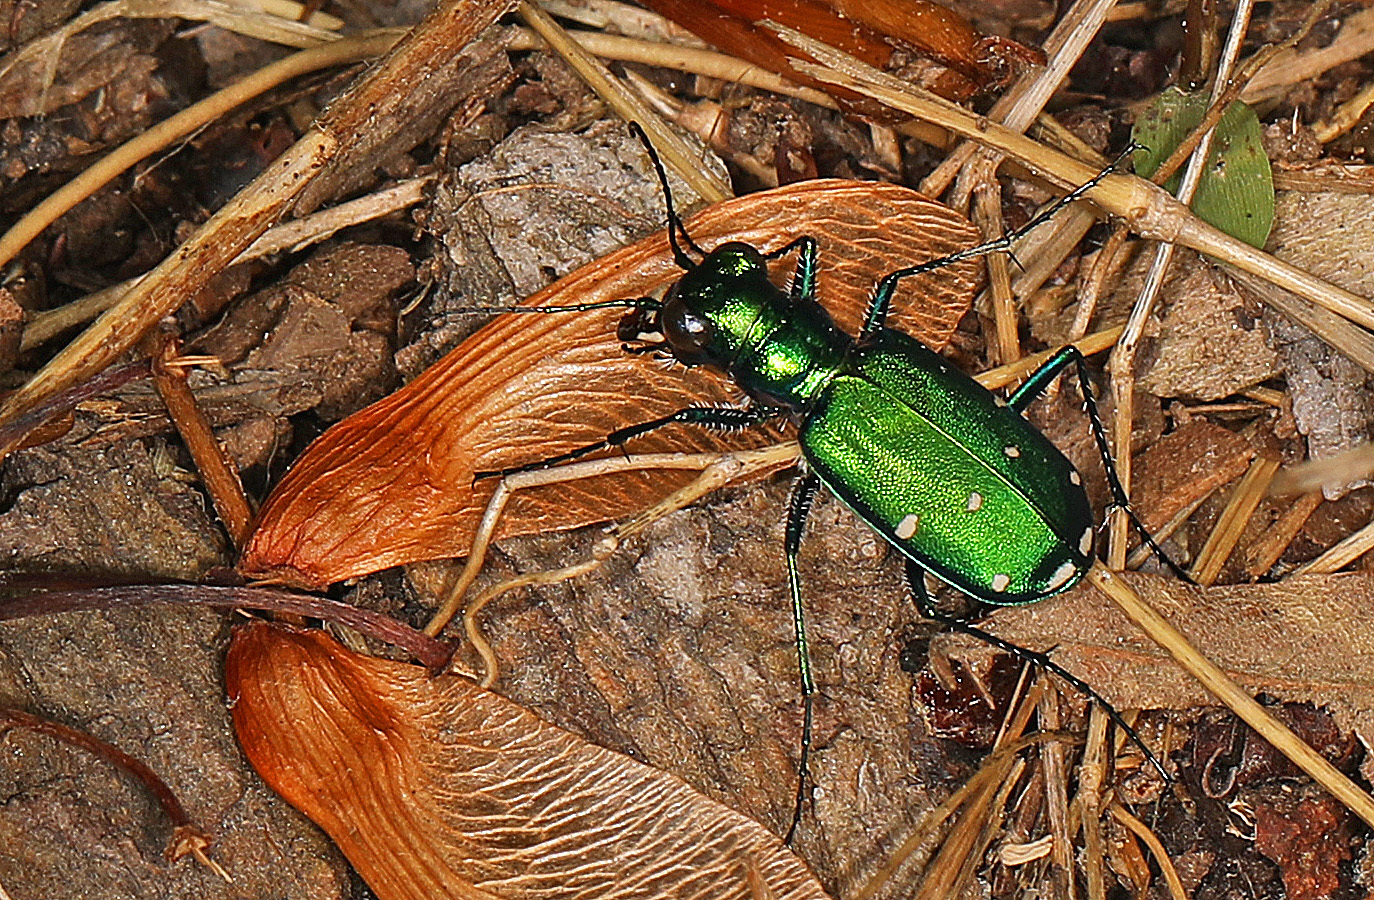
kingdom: Animalia
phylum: Arthropoda
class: Insecta
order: Coleoptera
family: Carabidae
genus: Cicindela
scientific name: Cicindela sexguttata
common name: Six-spotted tiger beetle
